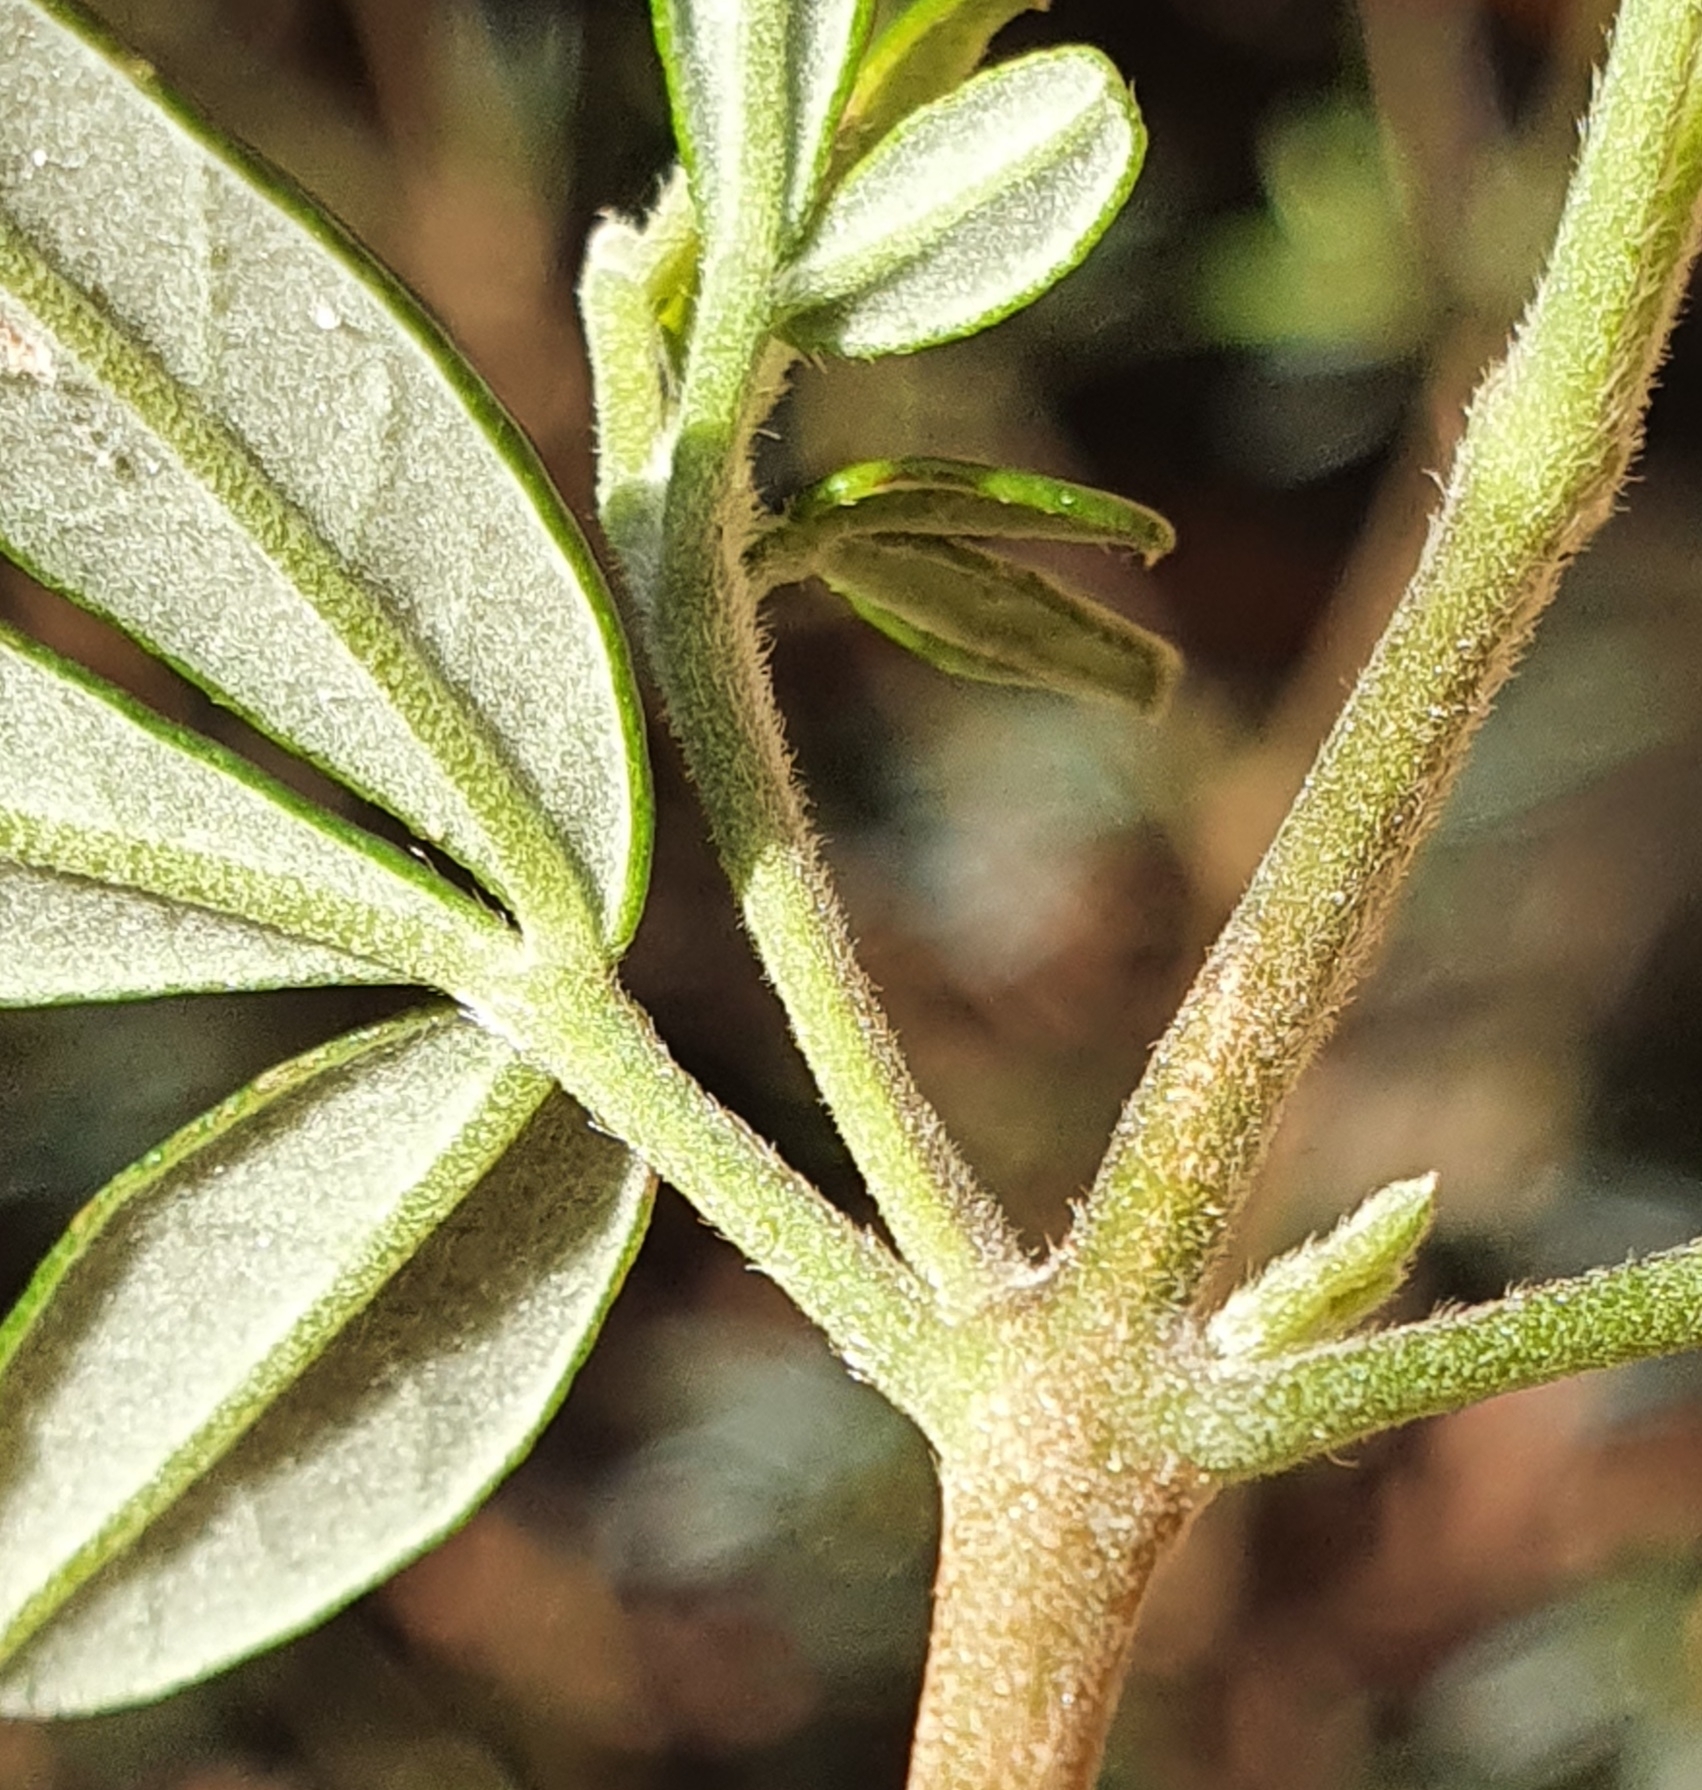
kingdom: Plantae
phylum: Tracheophyta
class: Magnoliopsida
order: Sapindales
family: Rutaceae
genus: Zieria
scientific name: Zieria compacta
